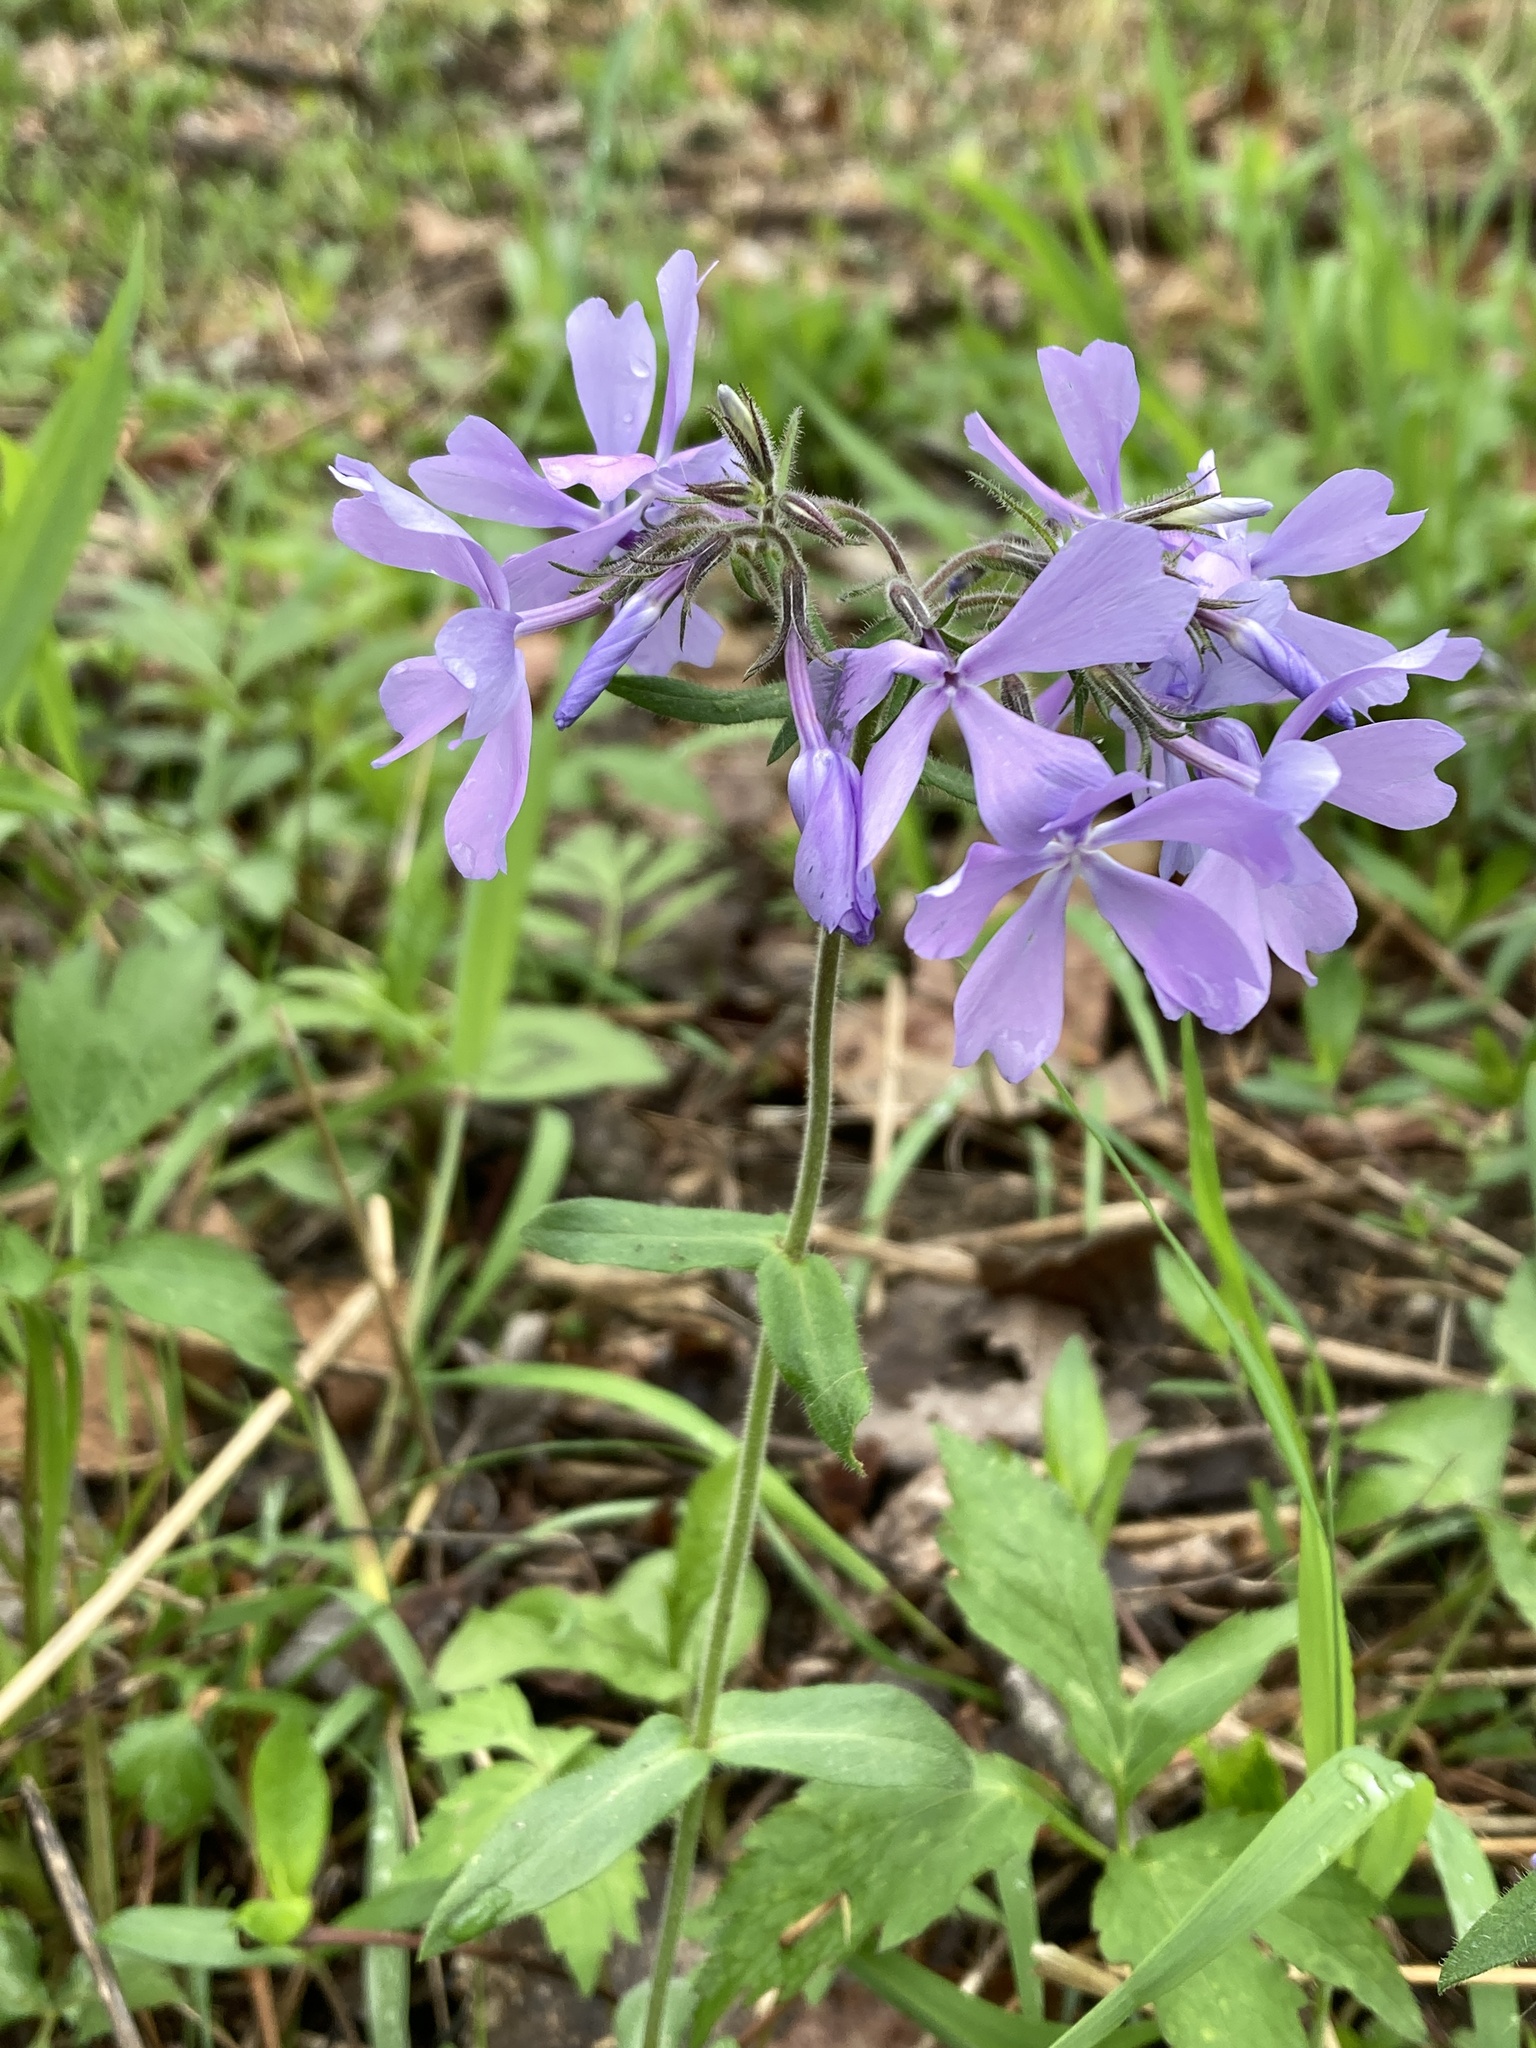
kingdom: Plantae
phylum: Tracheophyta
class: Magnoliopsida
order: Ericales
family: Polemoniaceae
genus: Phlox
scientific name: Phlox divaricata
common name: Blue phlox
